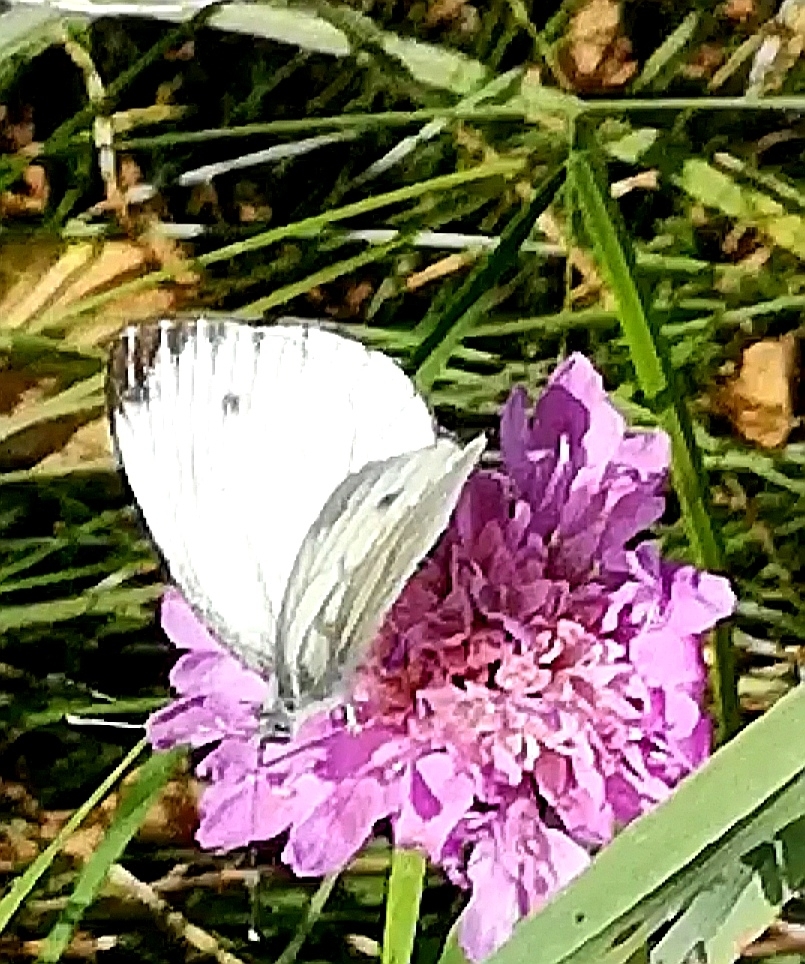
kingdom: Animalia
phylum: Arthropoda
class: Insecta
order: Lepidoptera
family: Pieridae
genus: Pieris
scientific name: Pieris napi
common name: Green-veined white
